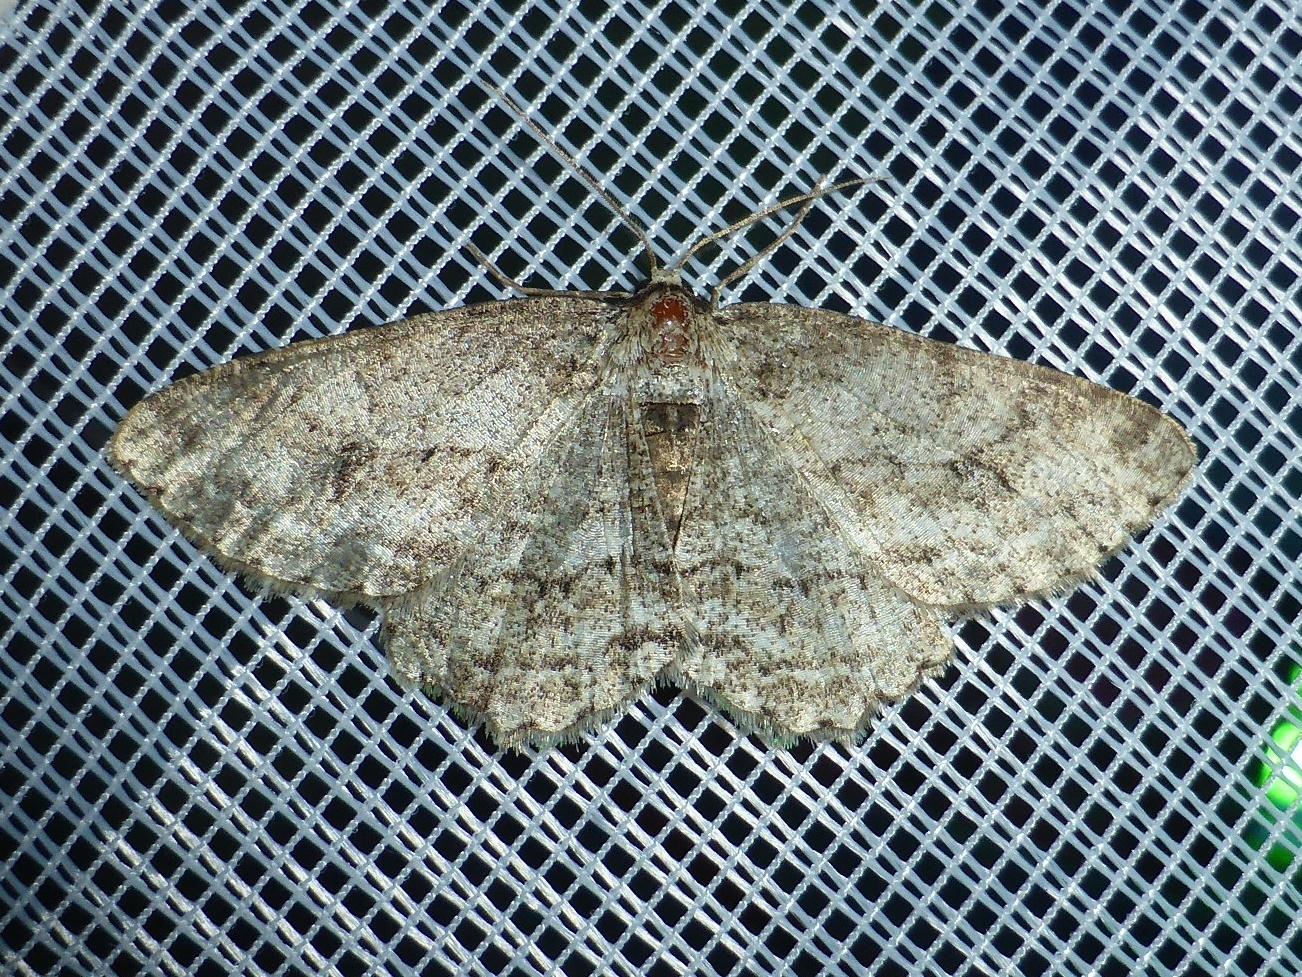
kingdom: Animalia
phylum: Arthropoda
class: Insecta
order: Lepidoptera
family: Geometridae
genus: Ectropis
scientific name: Ectropis crepuscularia
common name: Engrailed
